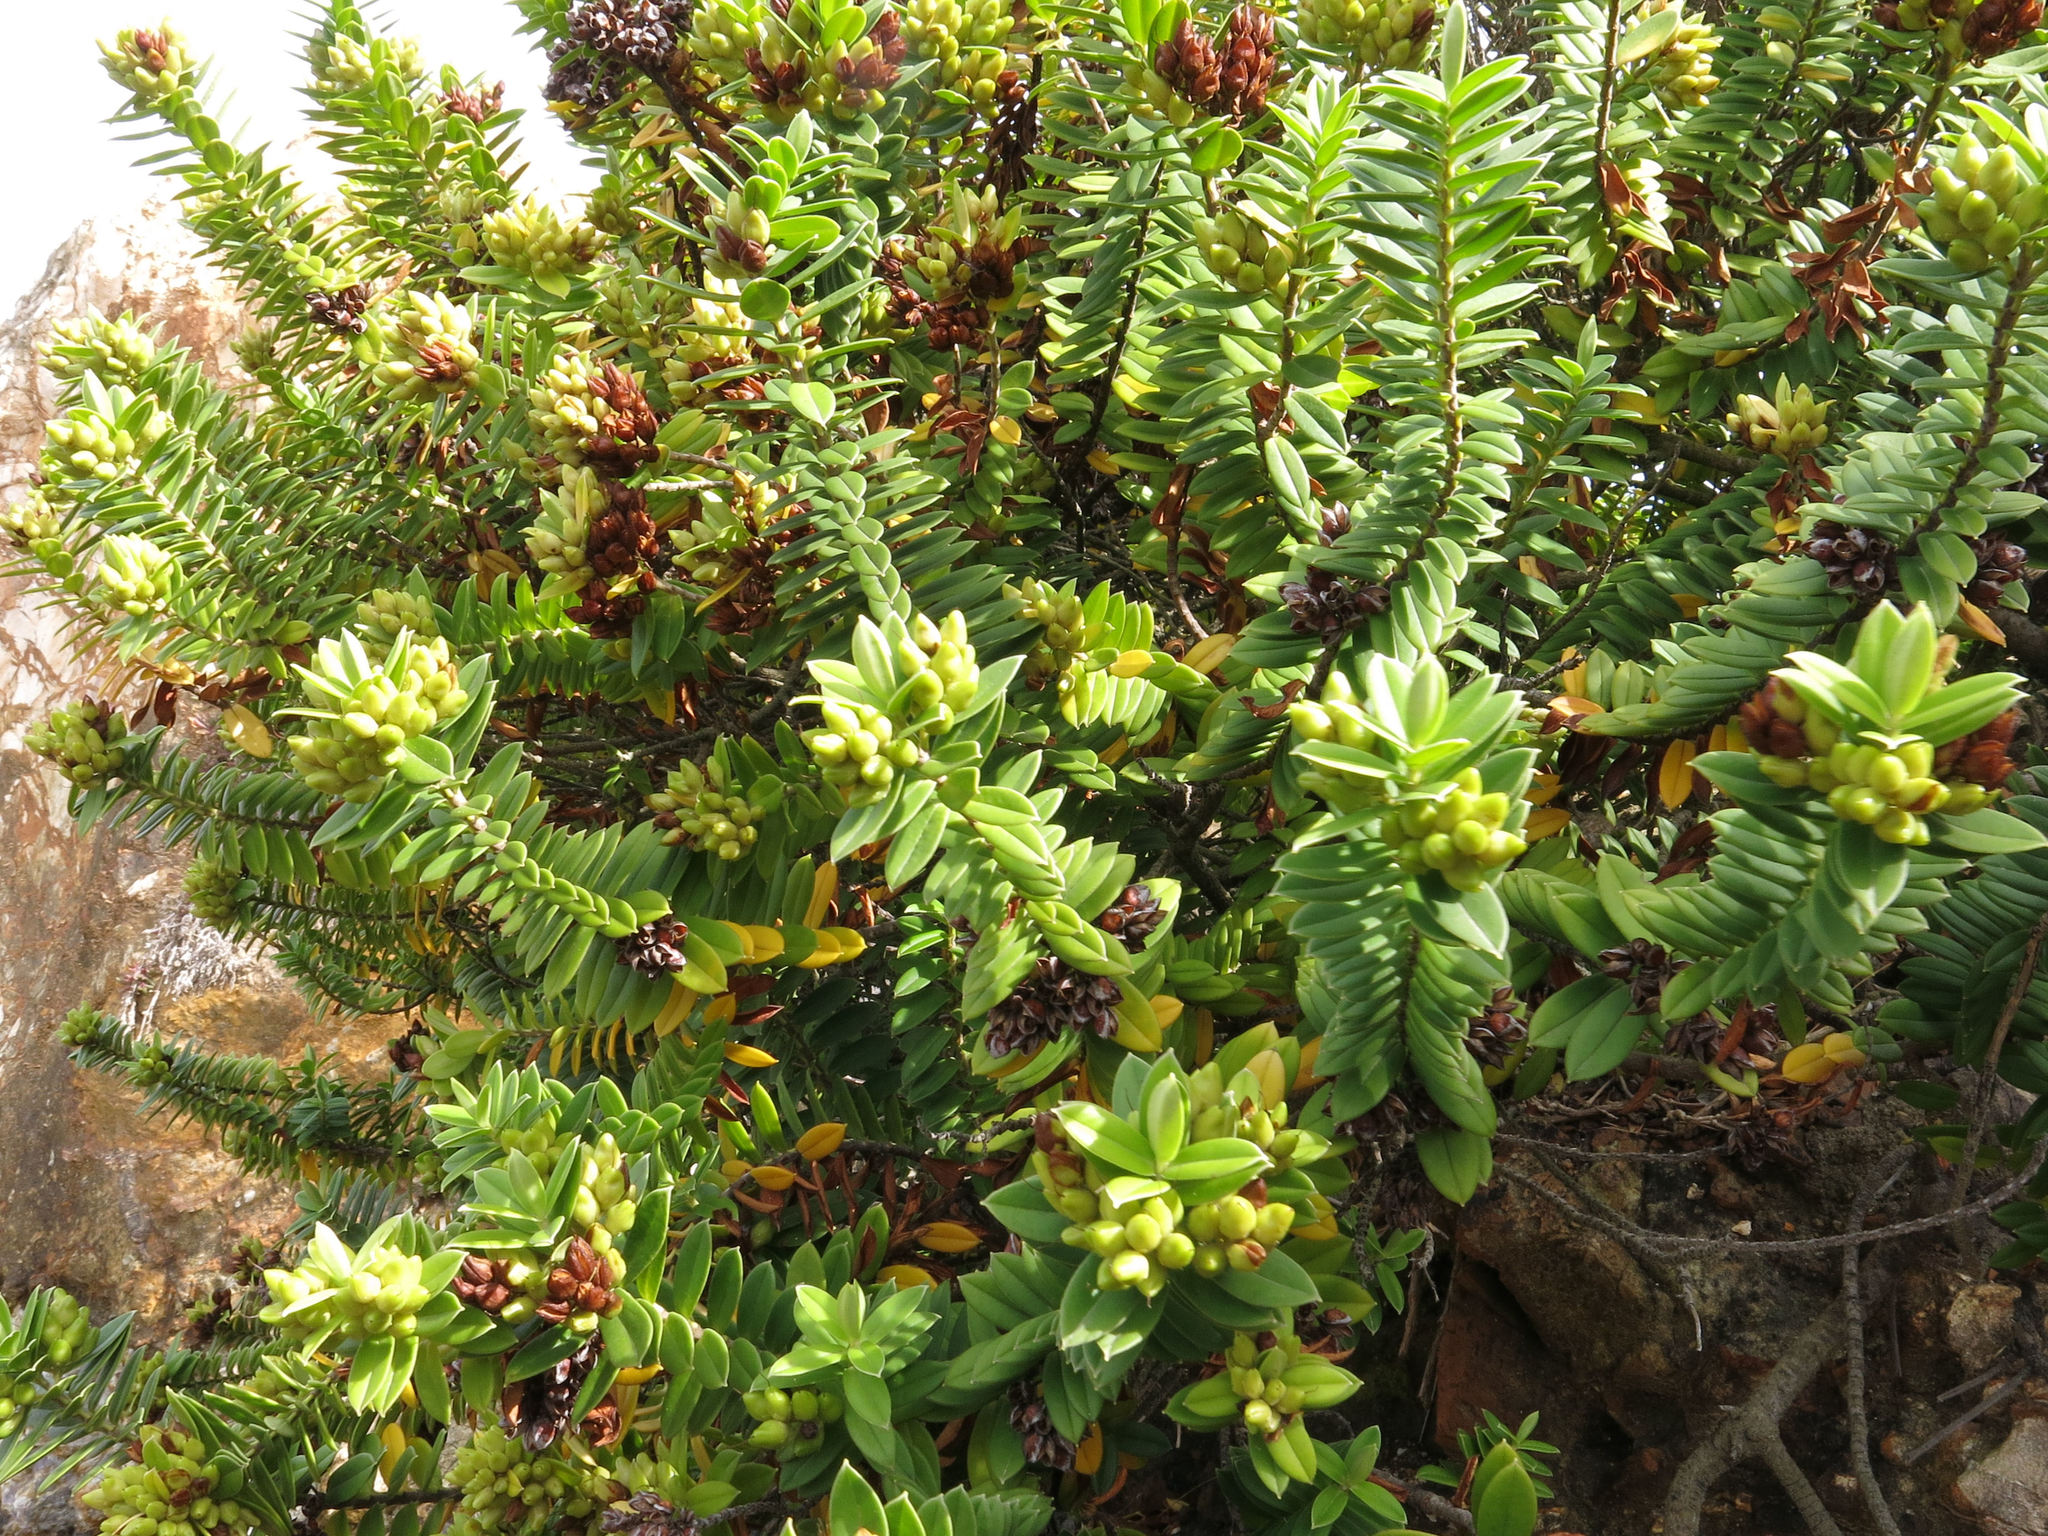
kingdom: Plantae
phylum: Tracheophyta
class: Magnoliopsida
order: Lamiales
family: Plantaginaceae
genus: Veronica
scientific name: Veronica elliptica
